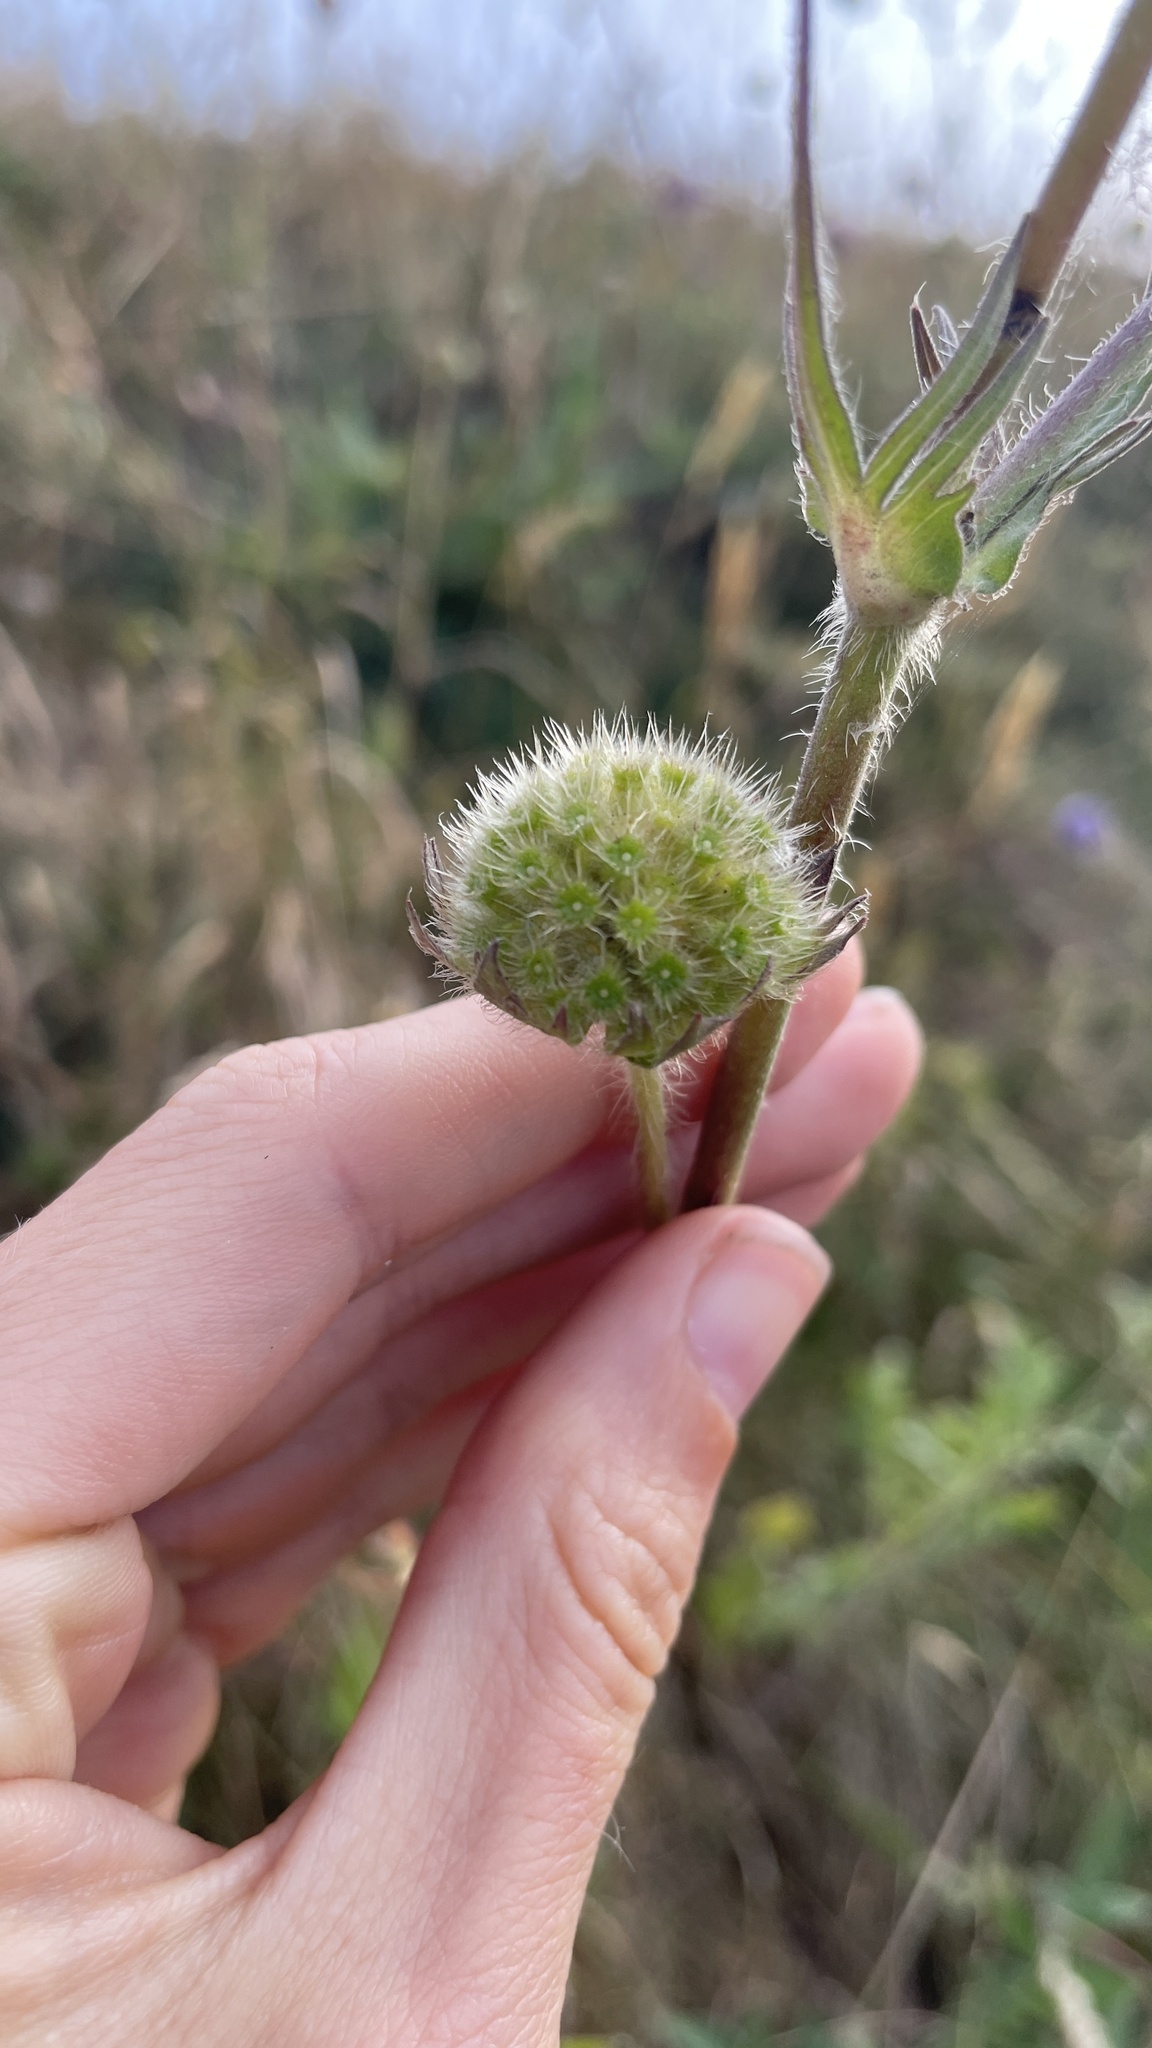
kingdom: Plantae
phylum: Tracheophyta
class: Magnoliopsida
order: Dipsacales
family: Caprifoliaceae
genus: Succisa
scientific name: Succisa pratensis
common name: Devil's-bit
